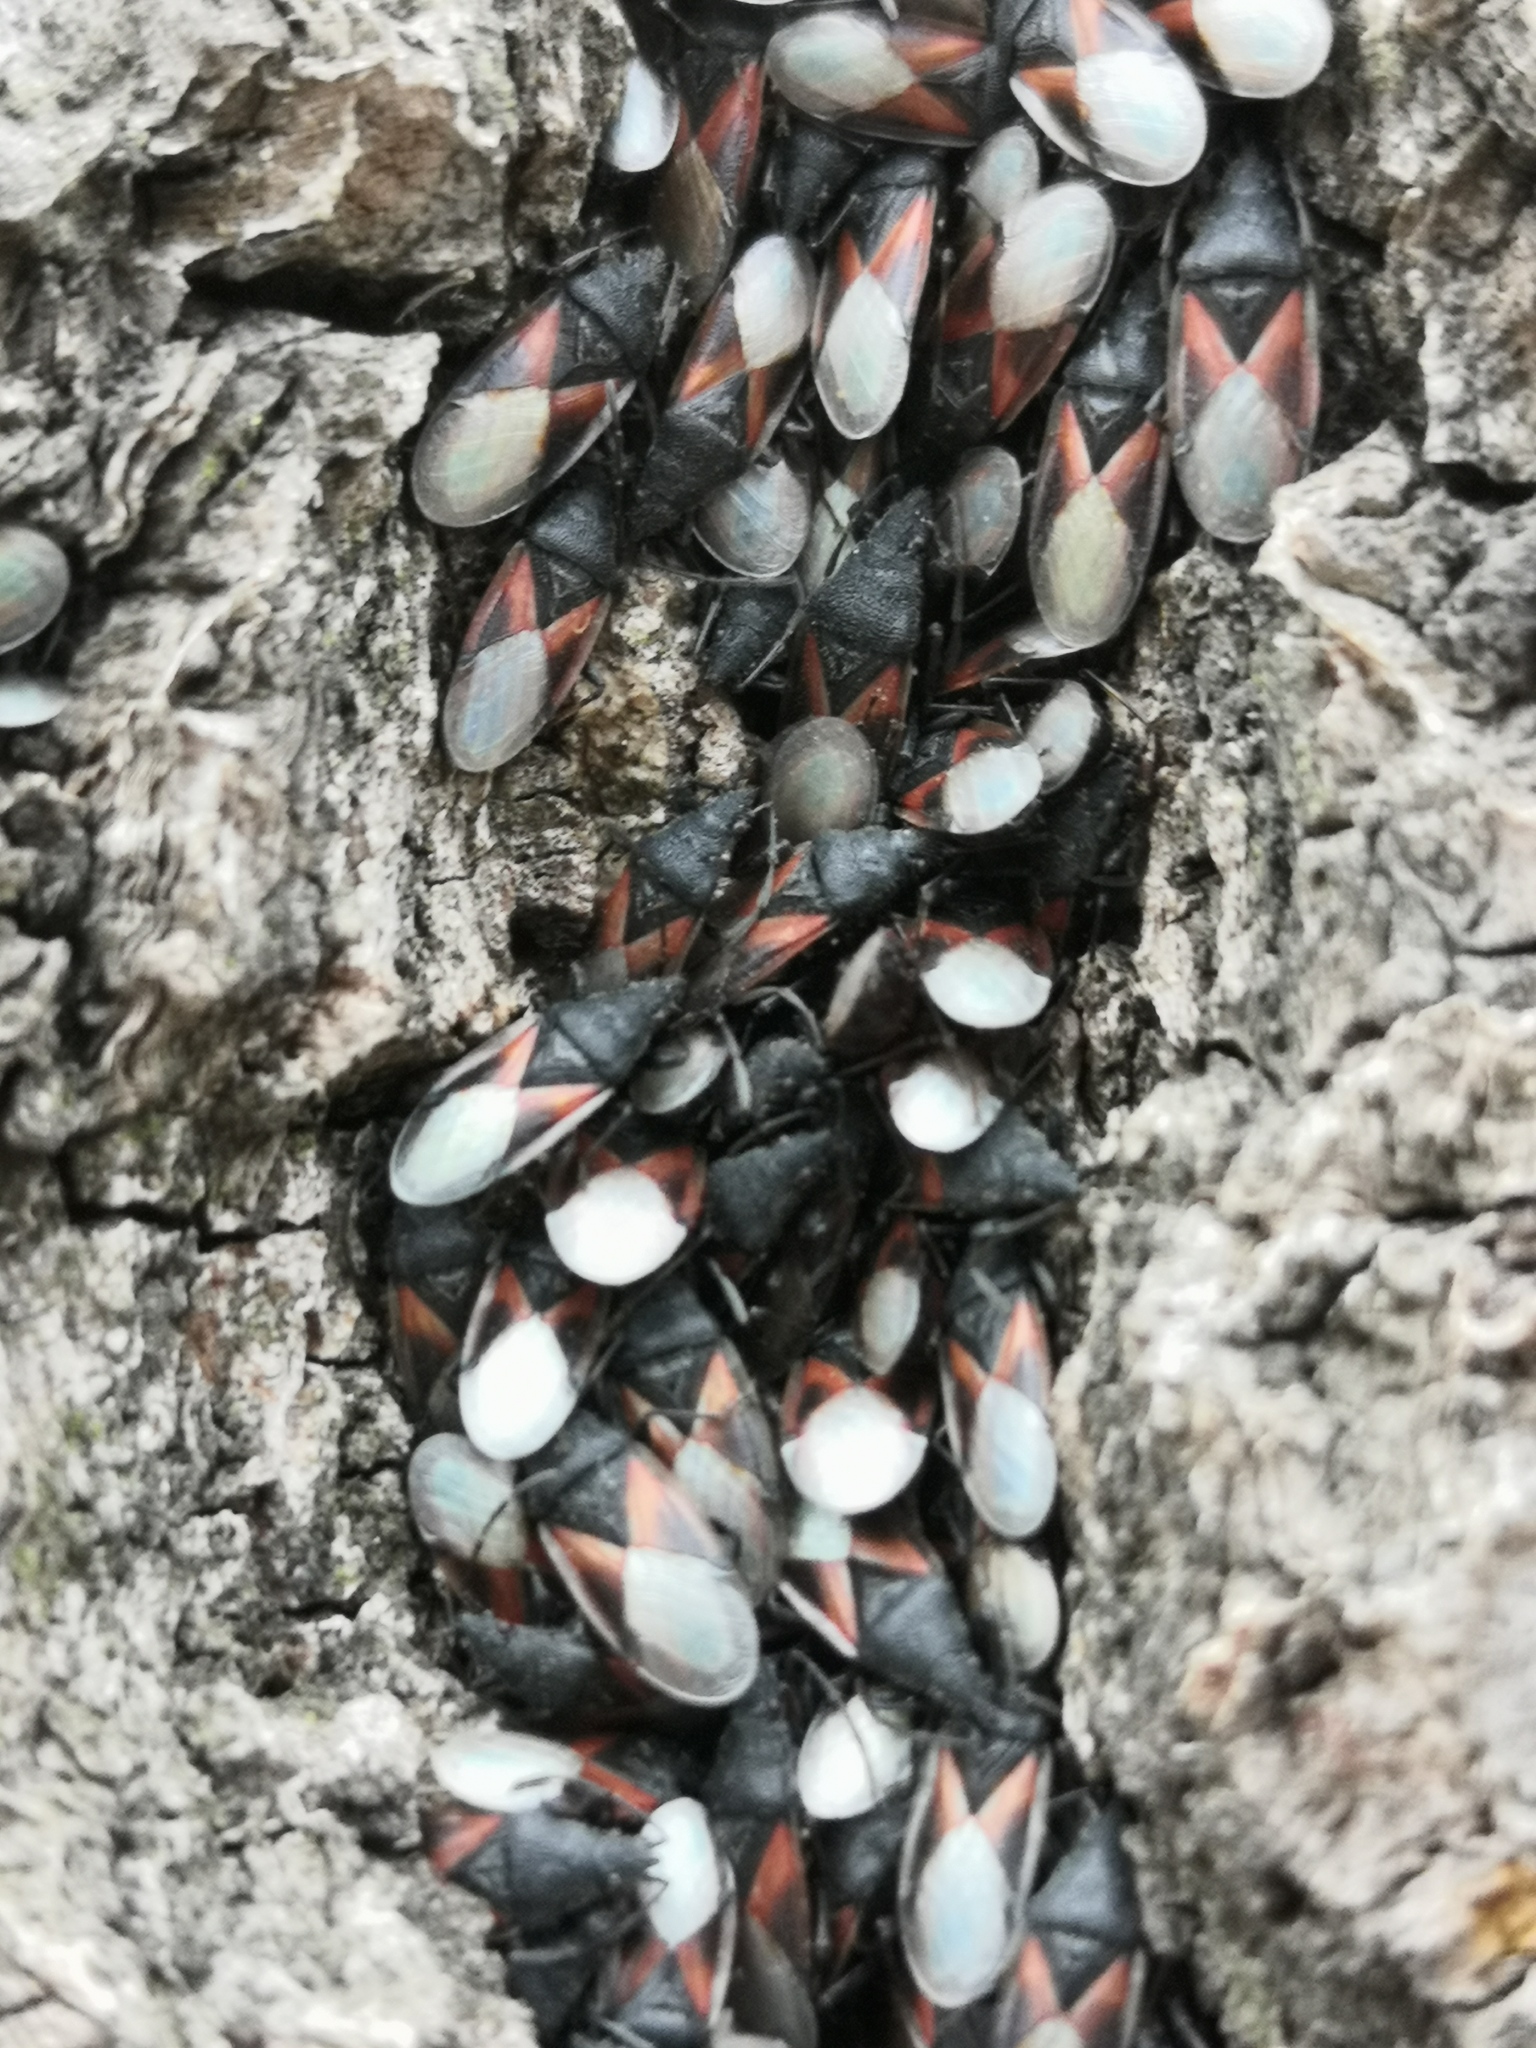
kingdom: Animalia
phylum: Arthropoda
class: Insecta
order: Hemiptera
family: Oxycarenidae
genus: Oxycarenus
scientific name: Oxycarenus lavaterae
